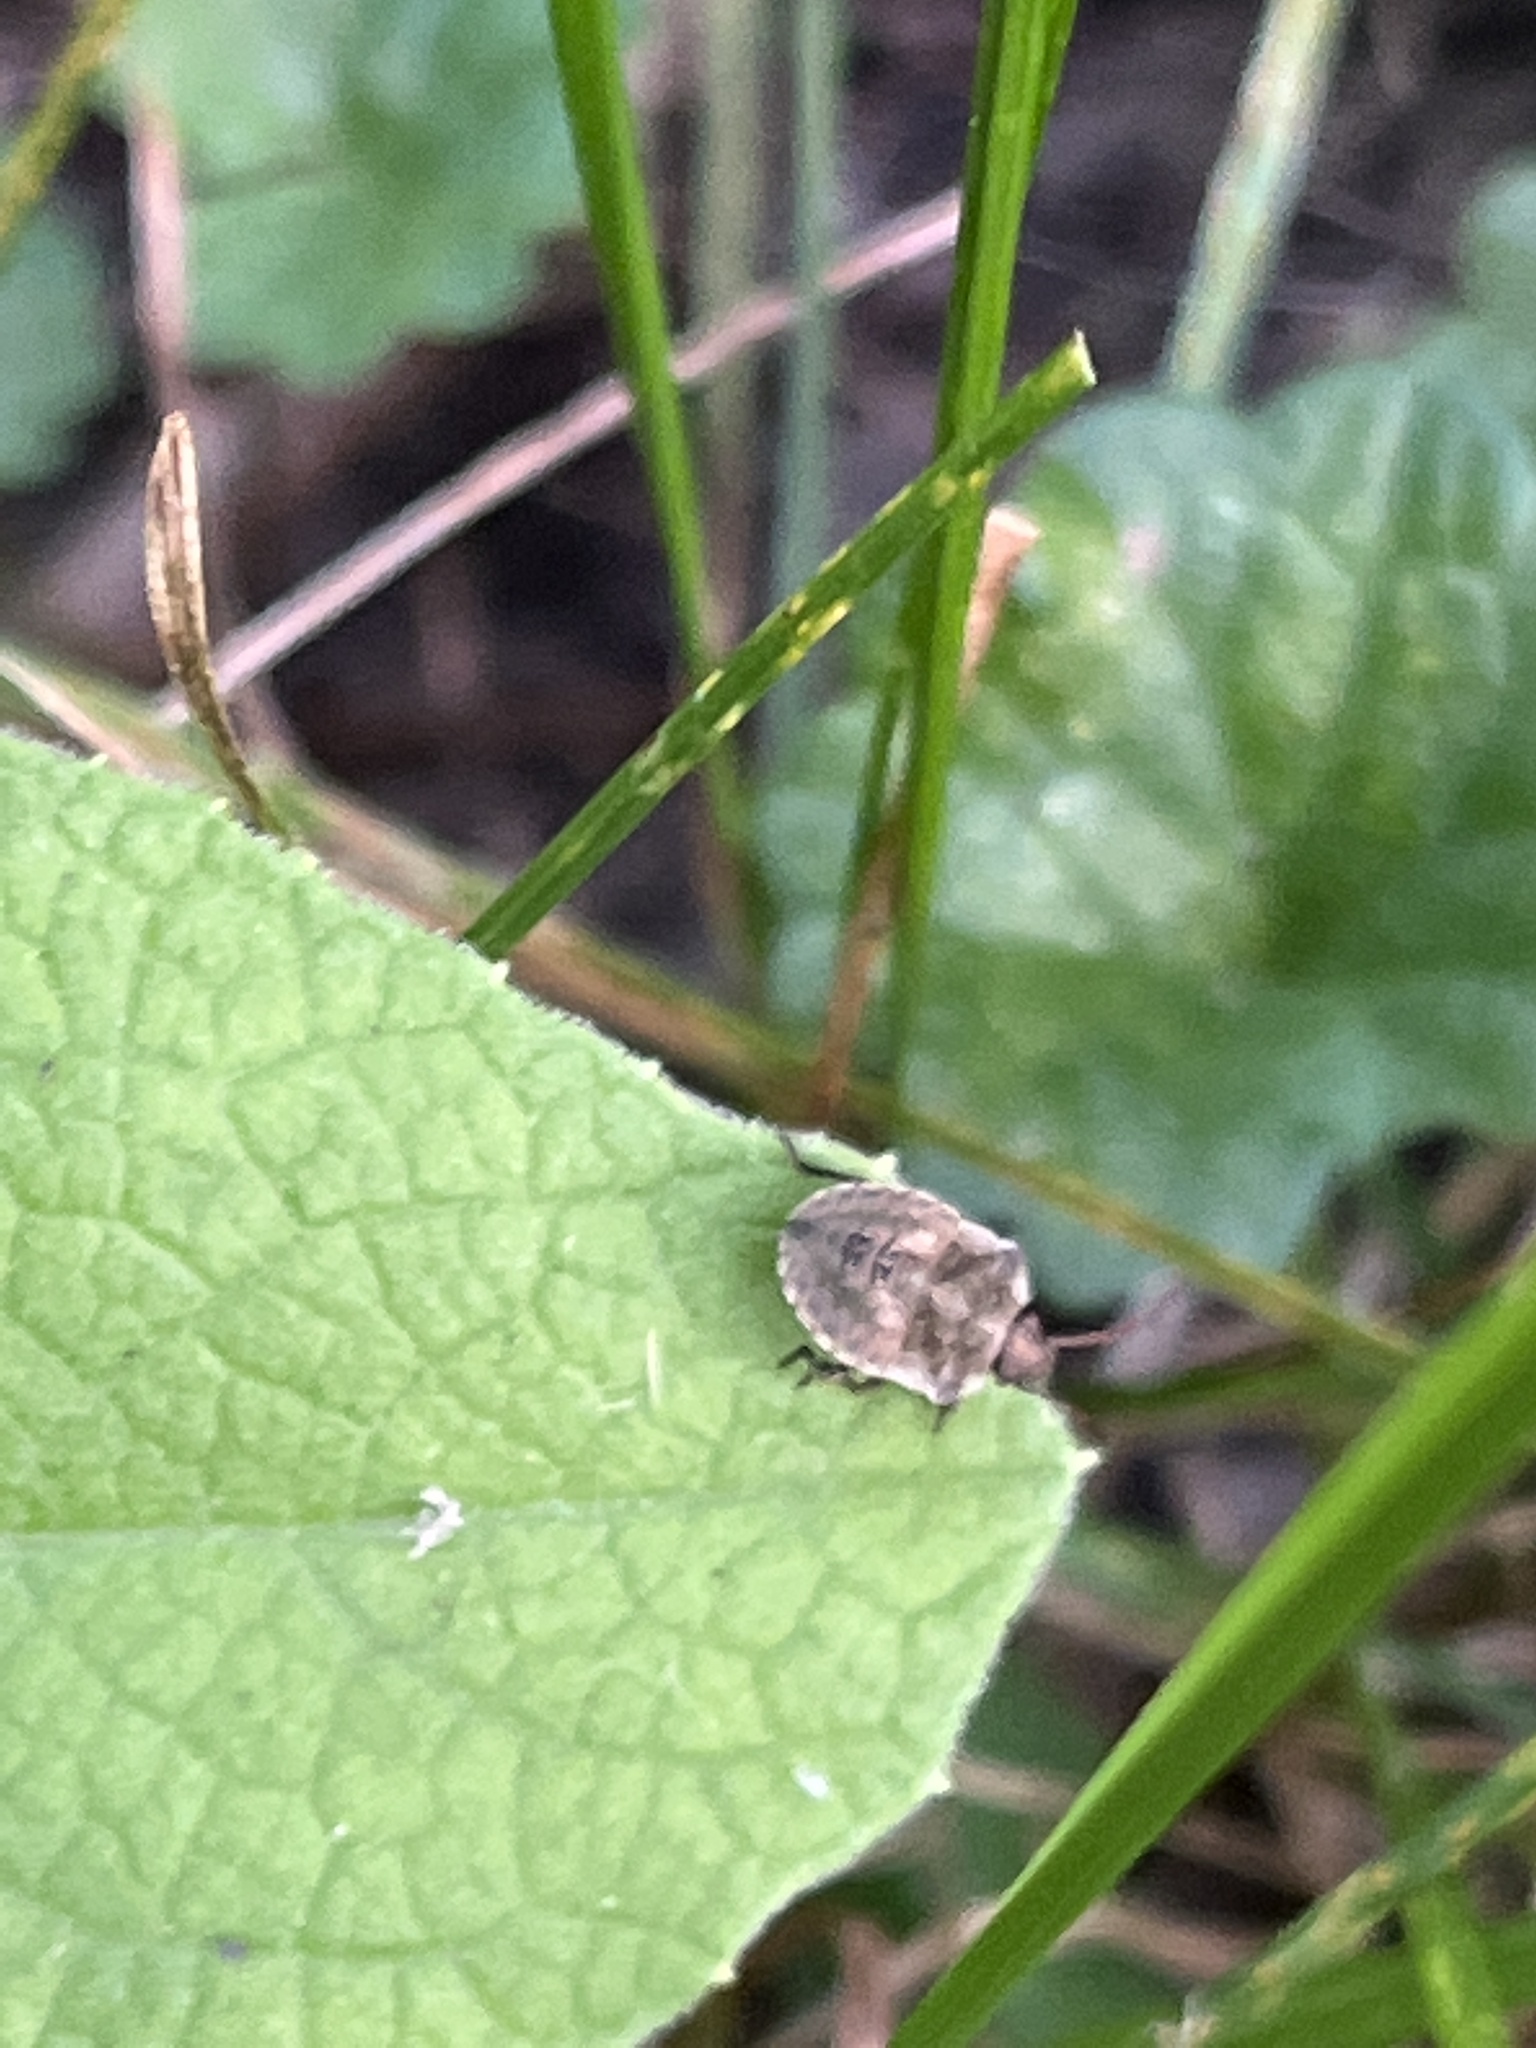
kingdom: Animalia
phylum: Arthropoda
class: Insecta
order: Hemiptera
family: Pentatomidae
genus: Euschistus
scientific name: Euschistus tristigmus
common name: Dusky stink bug
